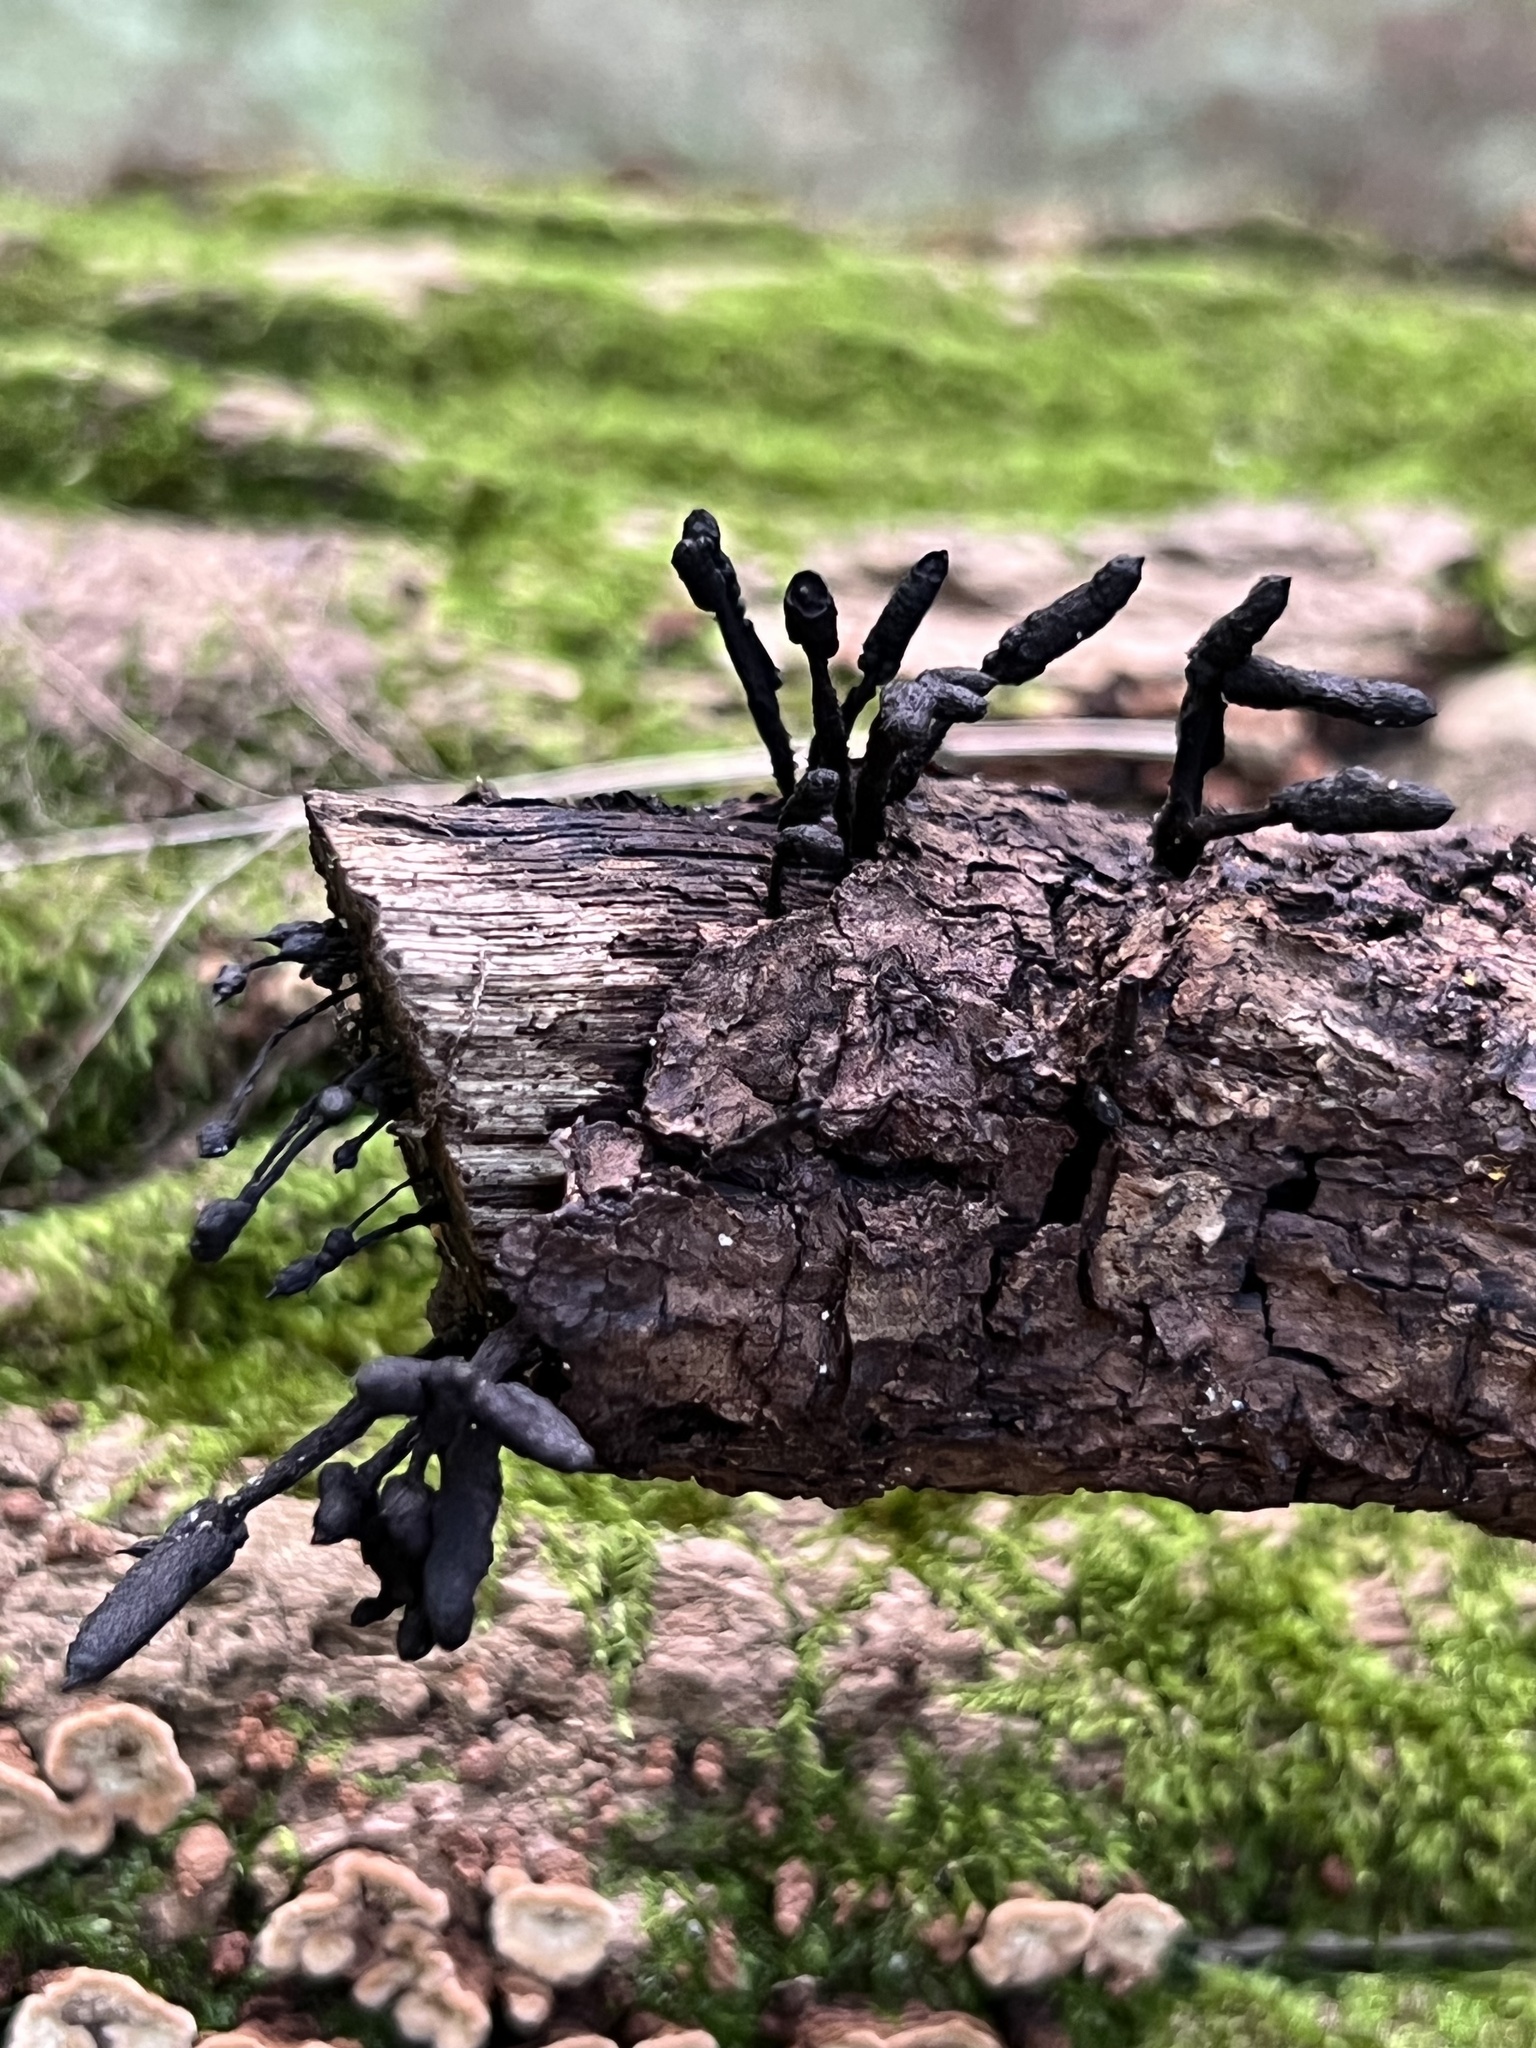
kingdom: Fungi
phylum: Ascomycota
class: Sordariomycetes
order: Xylariales
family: Xylariaceae
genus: Xylaria
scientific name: Xylaria arbuscula
